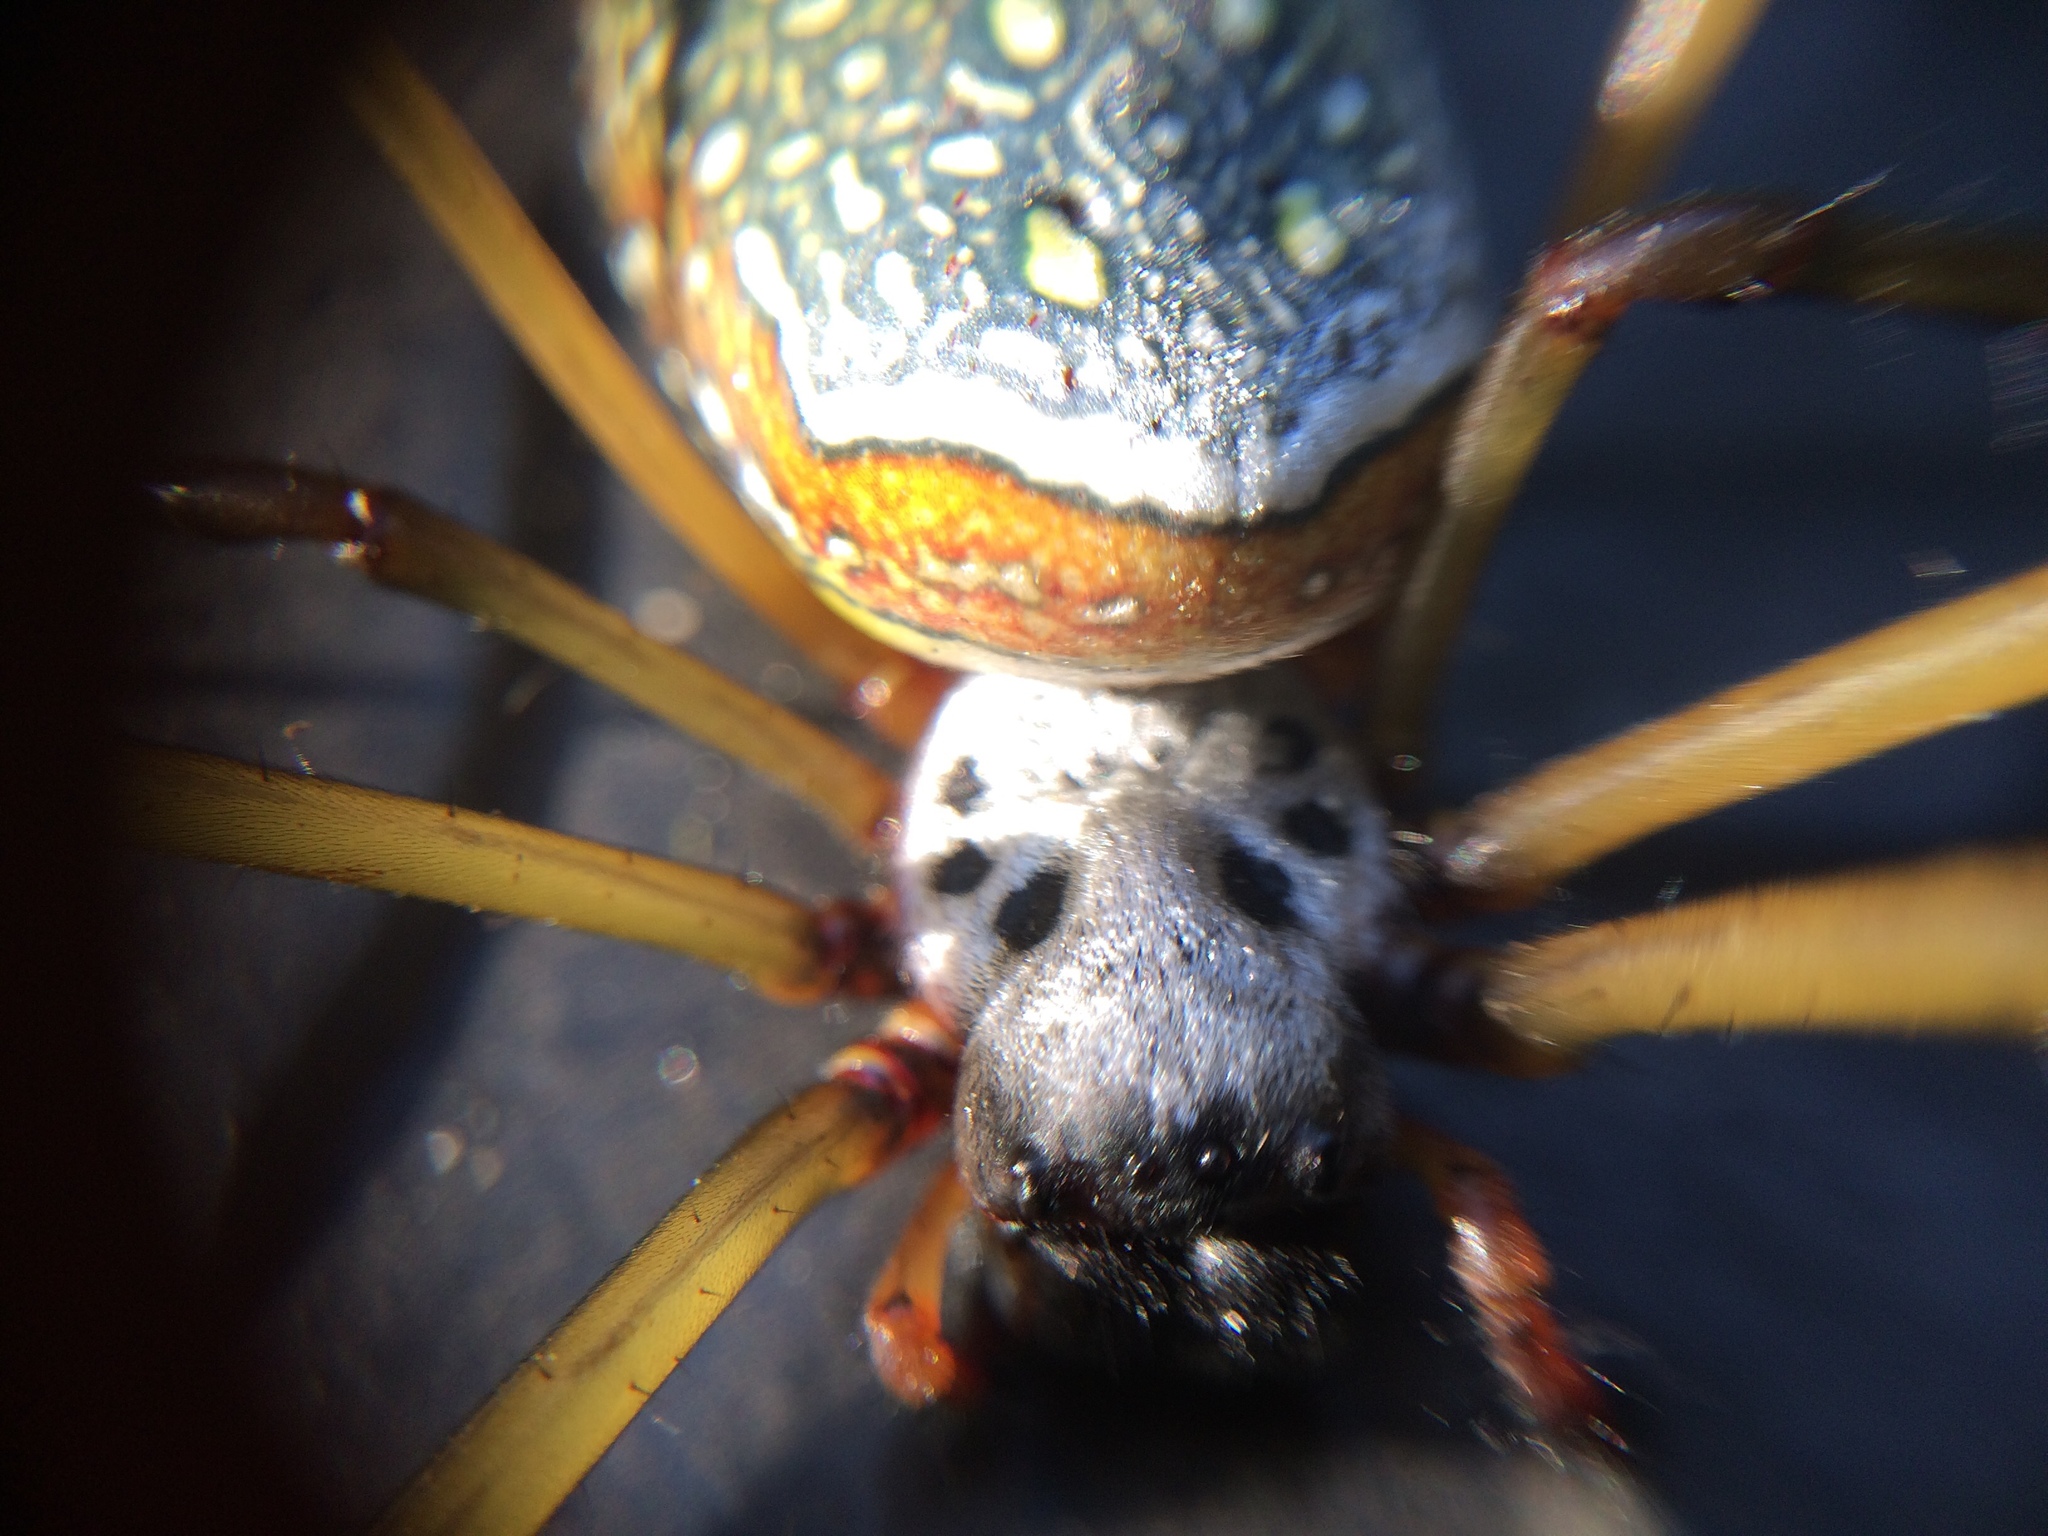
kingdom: Animalia
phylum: Arthropoda
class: Arachnida
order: Araneae
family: Araneidae
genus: Trichonephila
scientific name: Trichonephila clavipes
